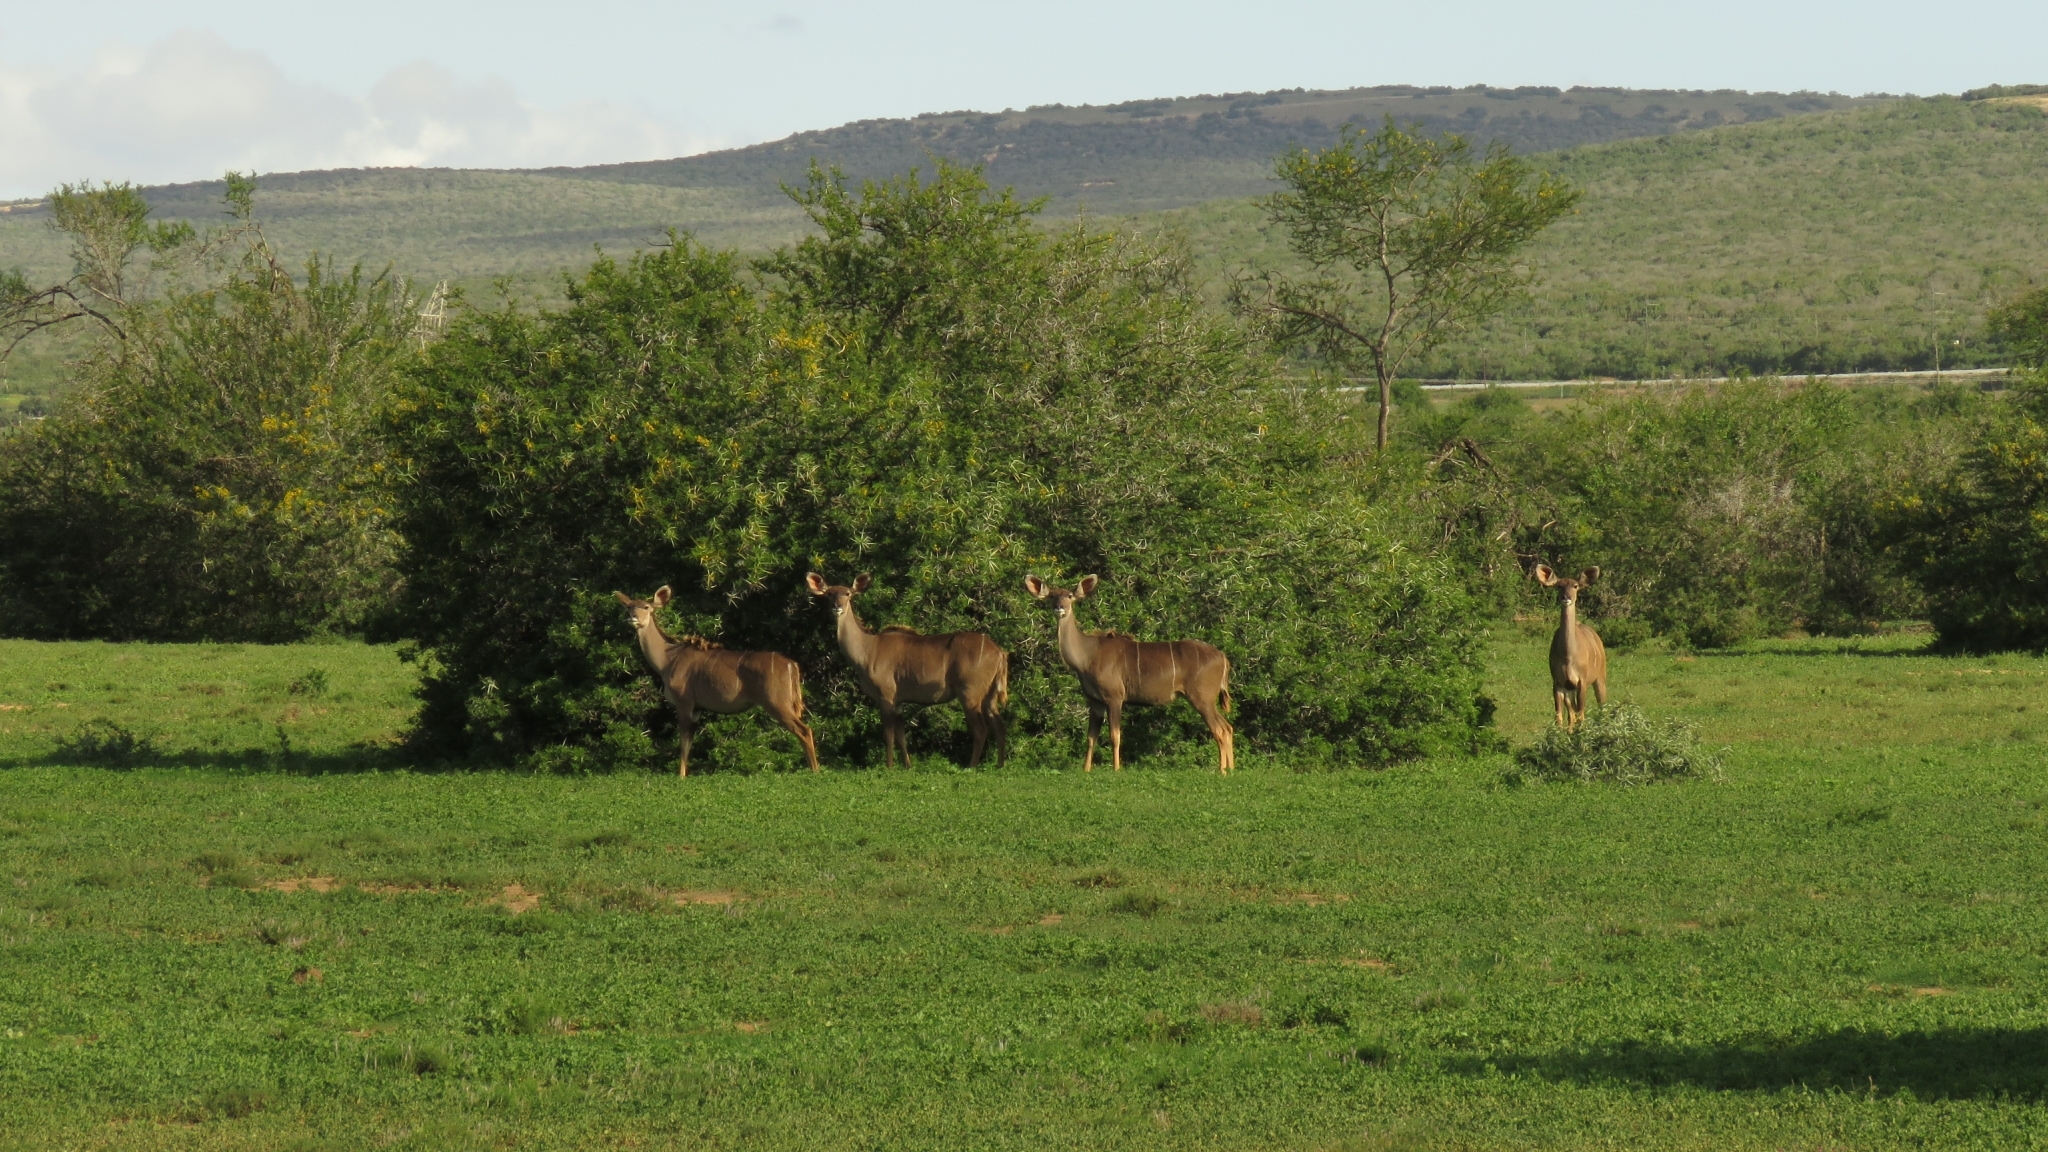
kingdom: Animalia
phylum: Chordata
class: Mammalia
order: Artiodactyla
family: Bovidae
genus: Tragelaphus
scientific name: Tragelaphus strepsiceros
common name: Greater kudu
